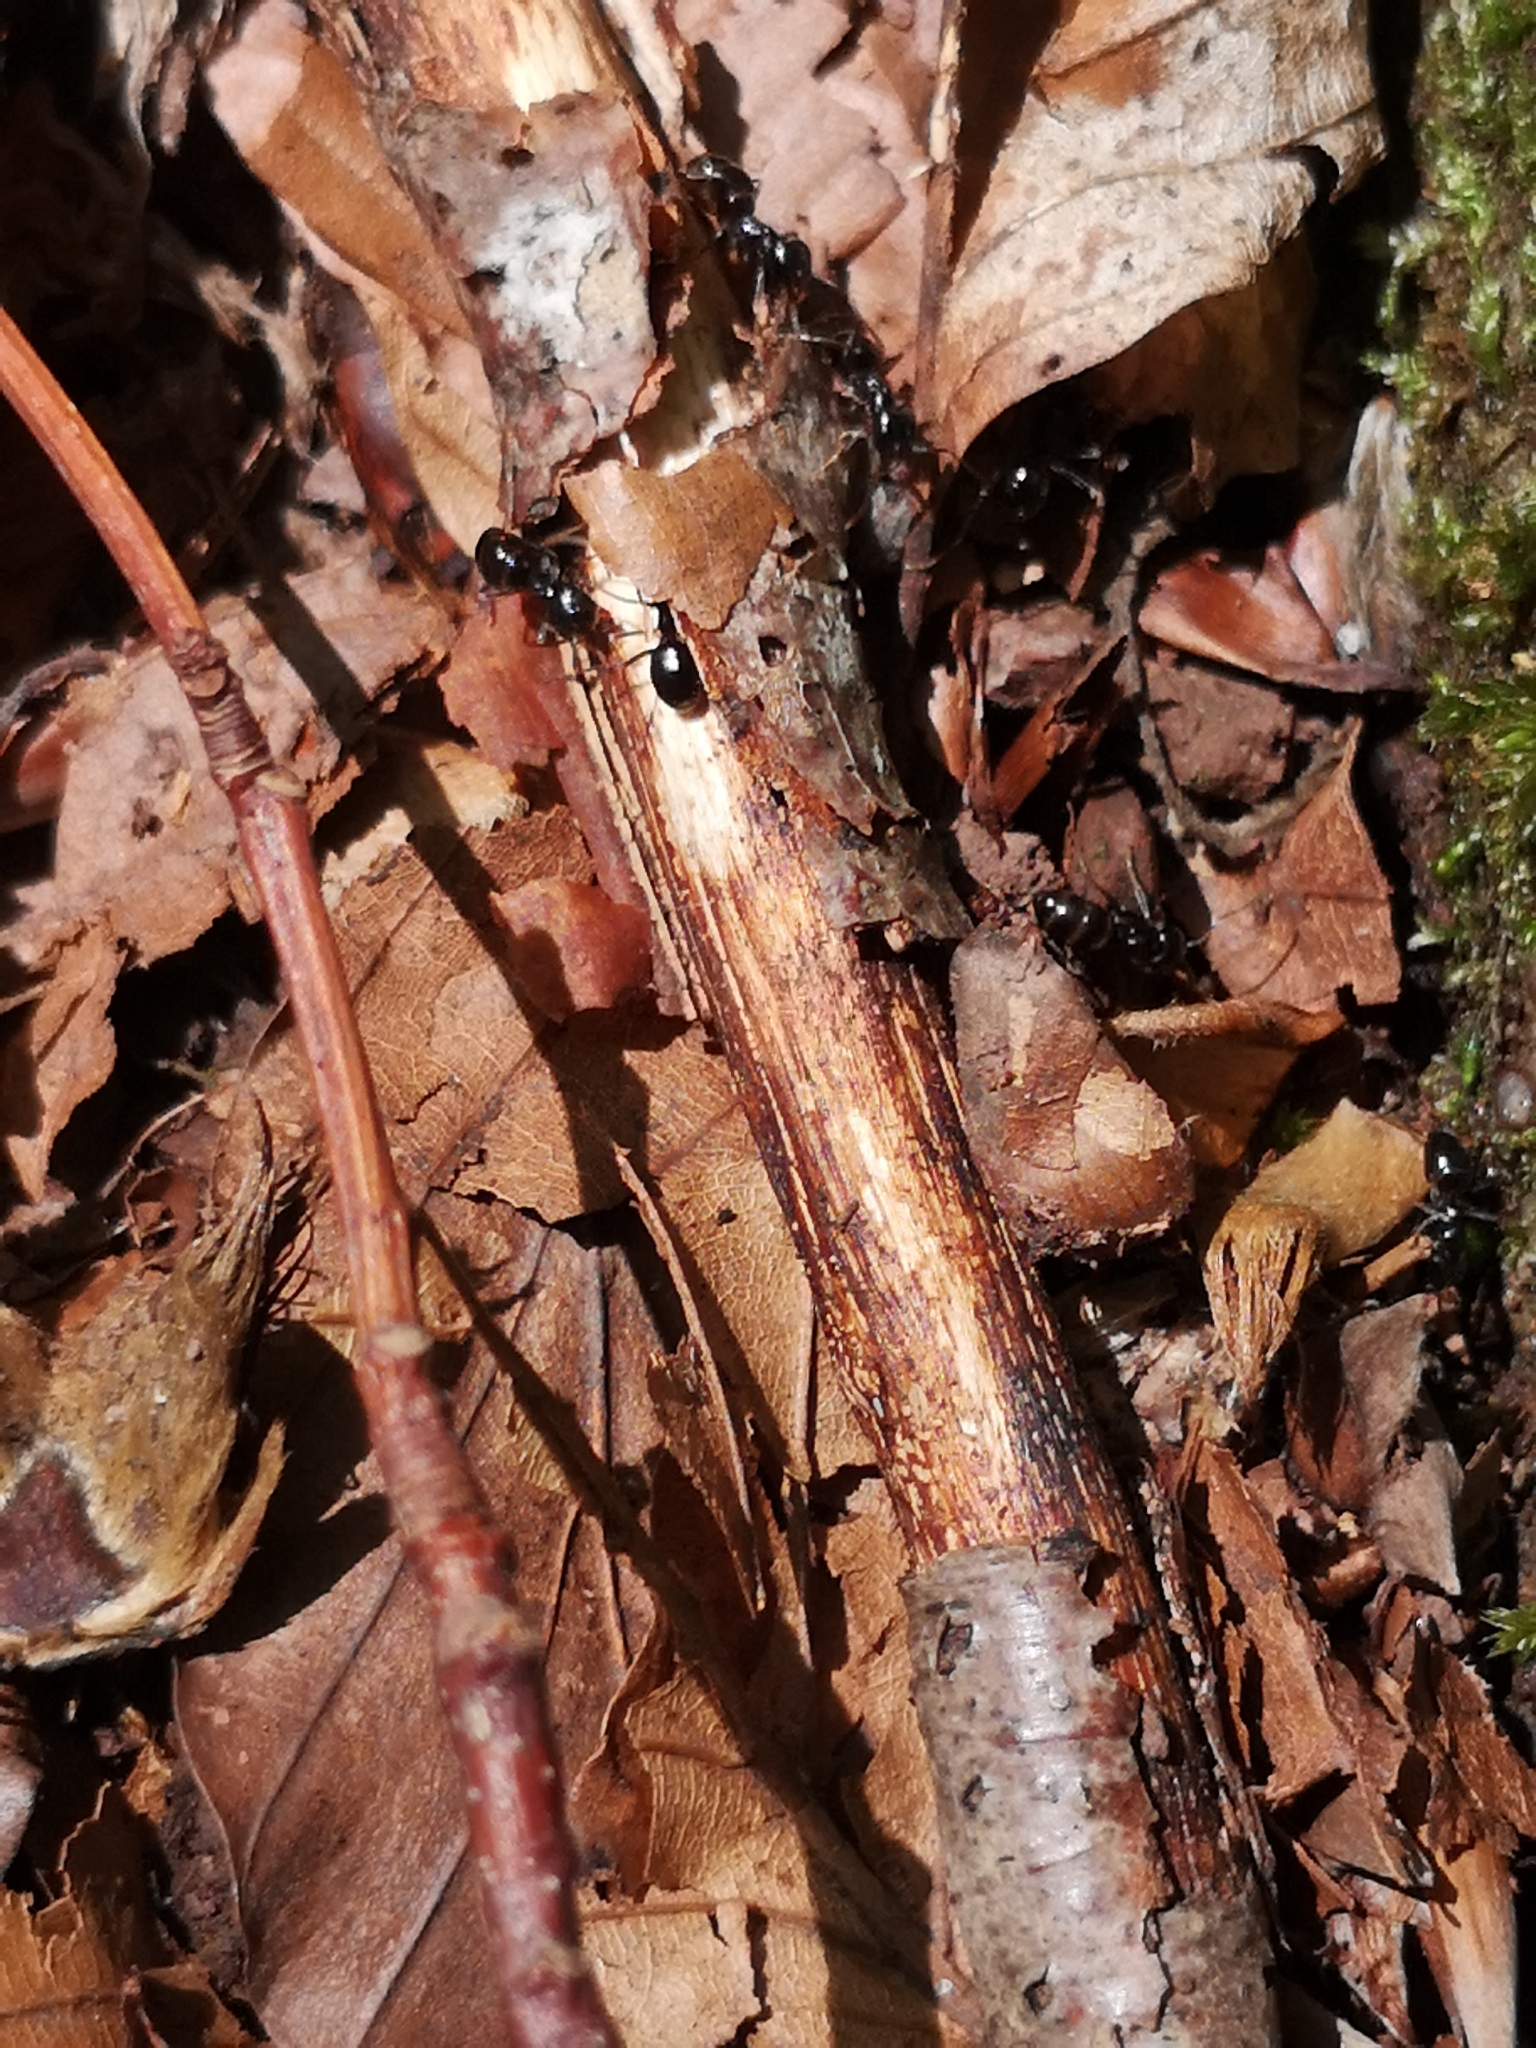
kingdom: Animalia
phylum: Arthropoda
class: Insecta
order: Hymenoptera
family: Formicidae
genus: Lasius
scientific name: Lasius fuliginosus
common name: Jet ant
